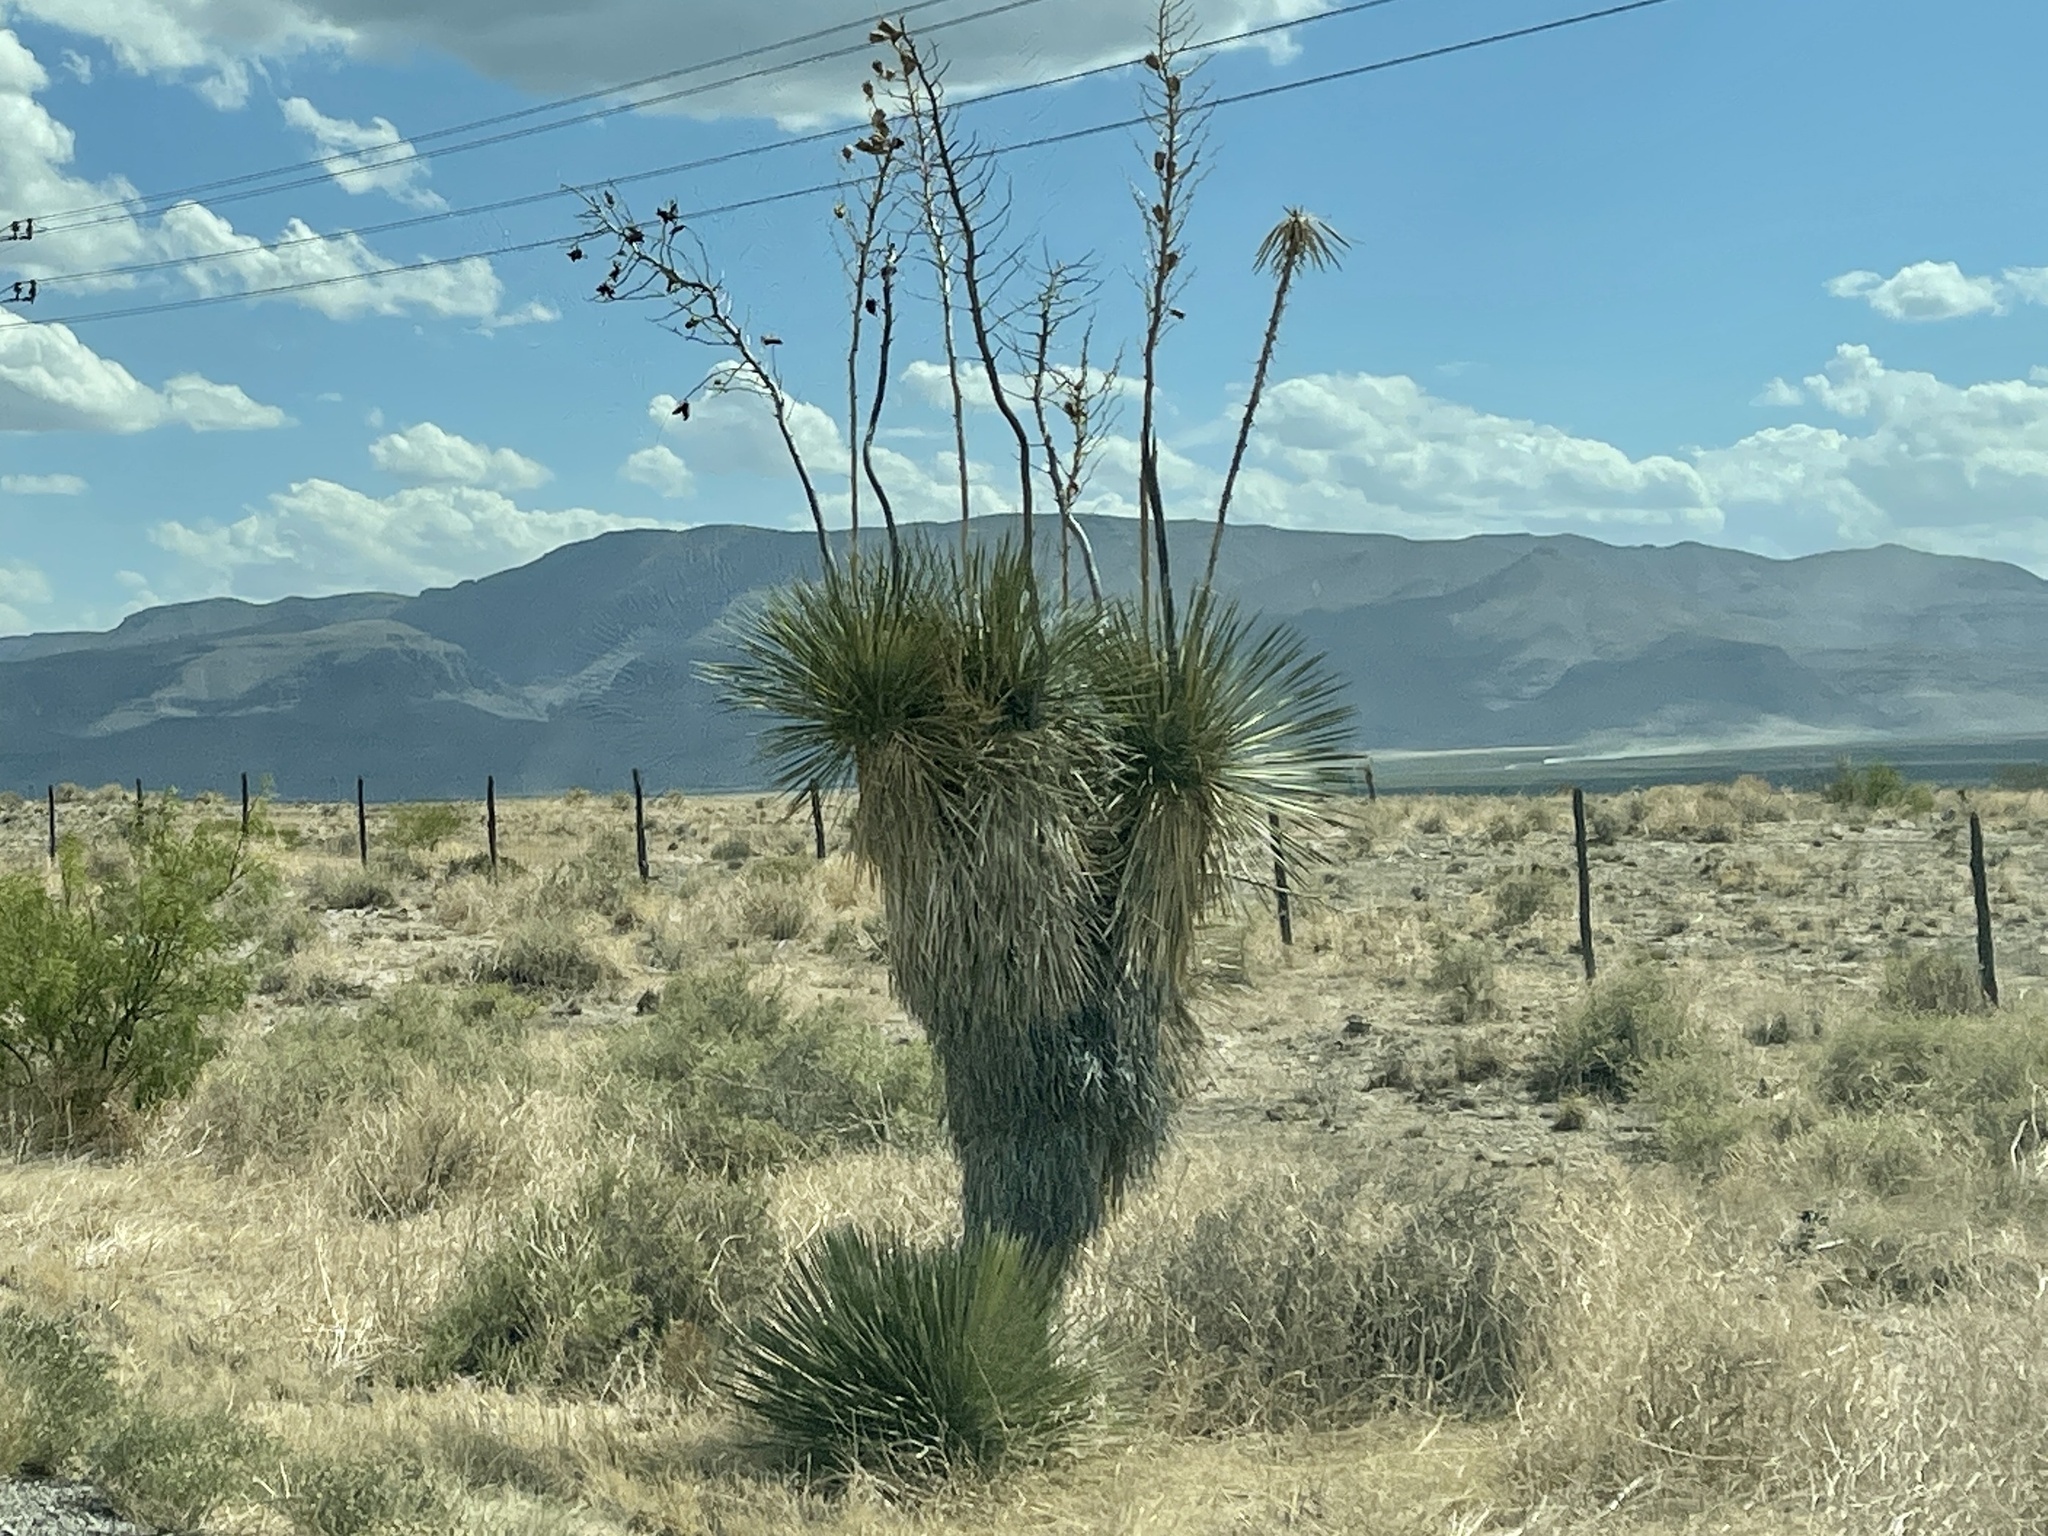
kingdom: Plantae
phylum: Tracheophyta
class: Liliopsida
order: Asparagales
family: Asparagaceae
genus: Yucca
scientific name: Yucca elata
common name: Palmella
